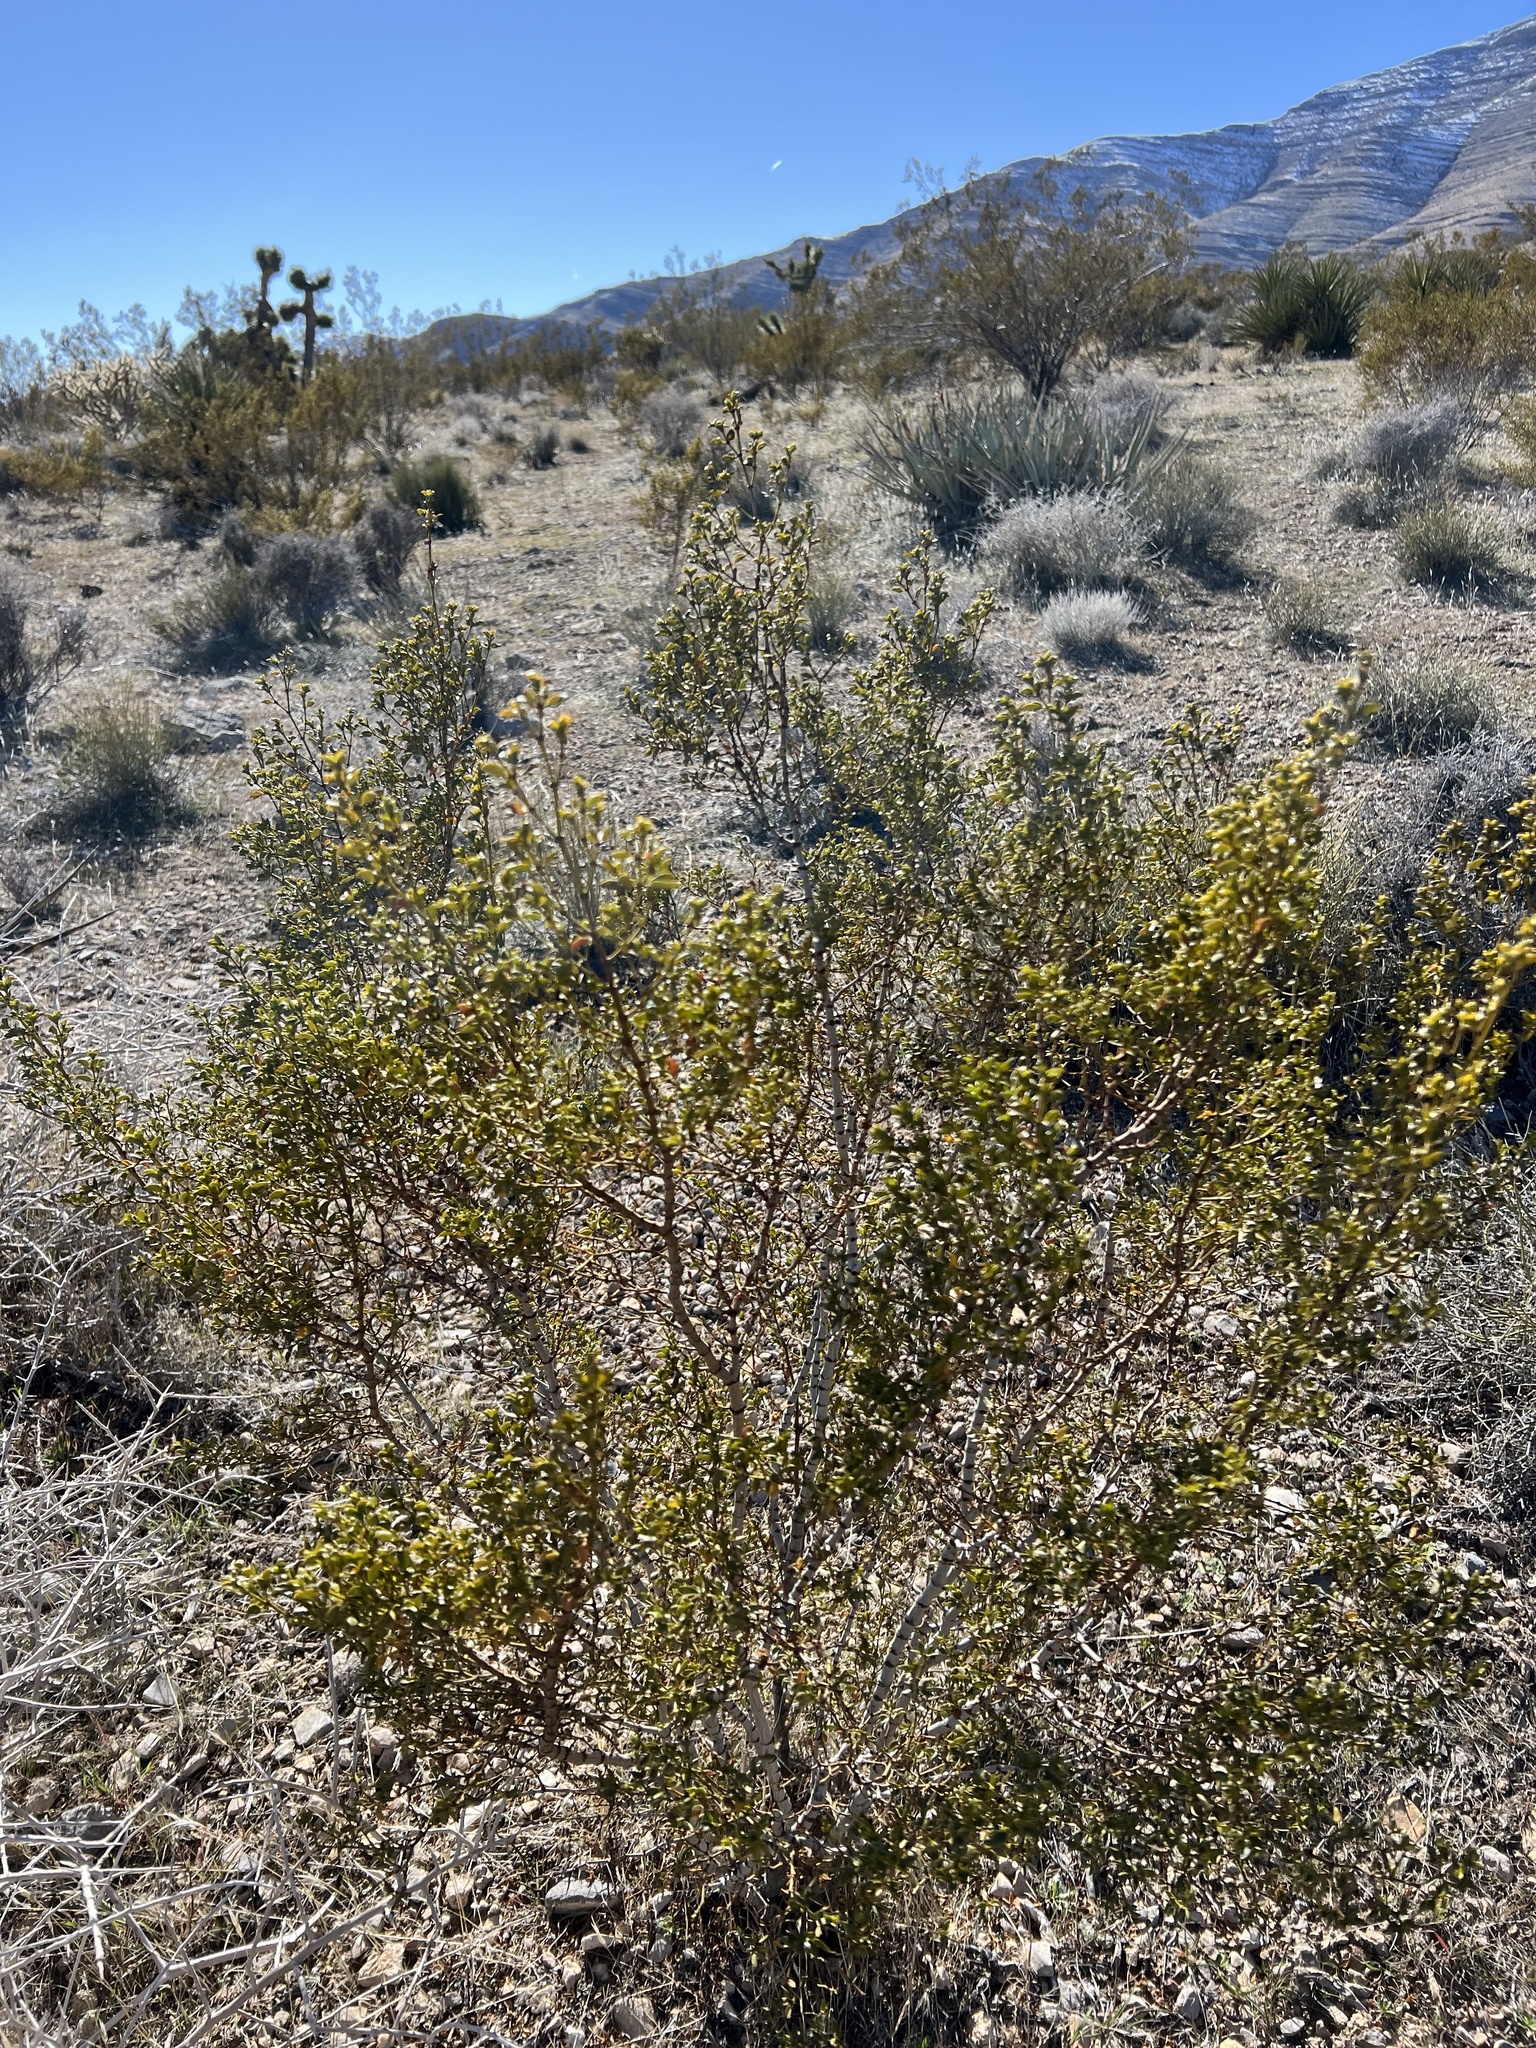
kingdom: Plantae
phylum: Tracheophyta
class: Magnoliopsida
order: Zygophyllales
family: Zygophyllaceae
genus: Larrea
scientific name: Larrea tridentata
